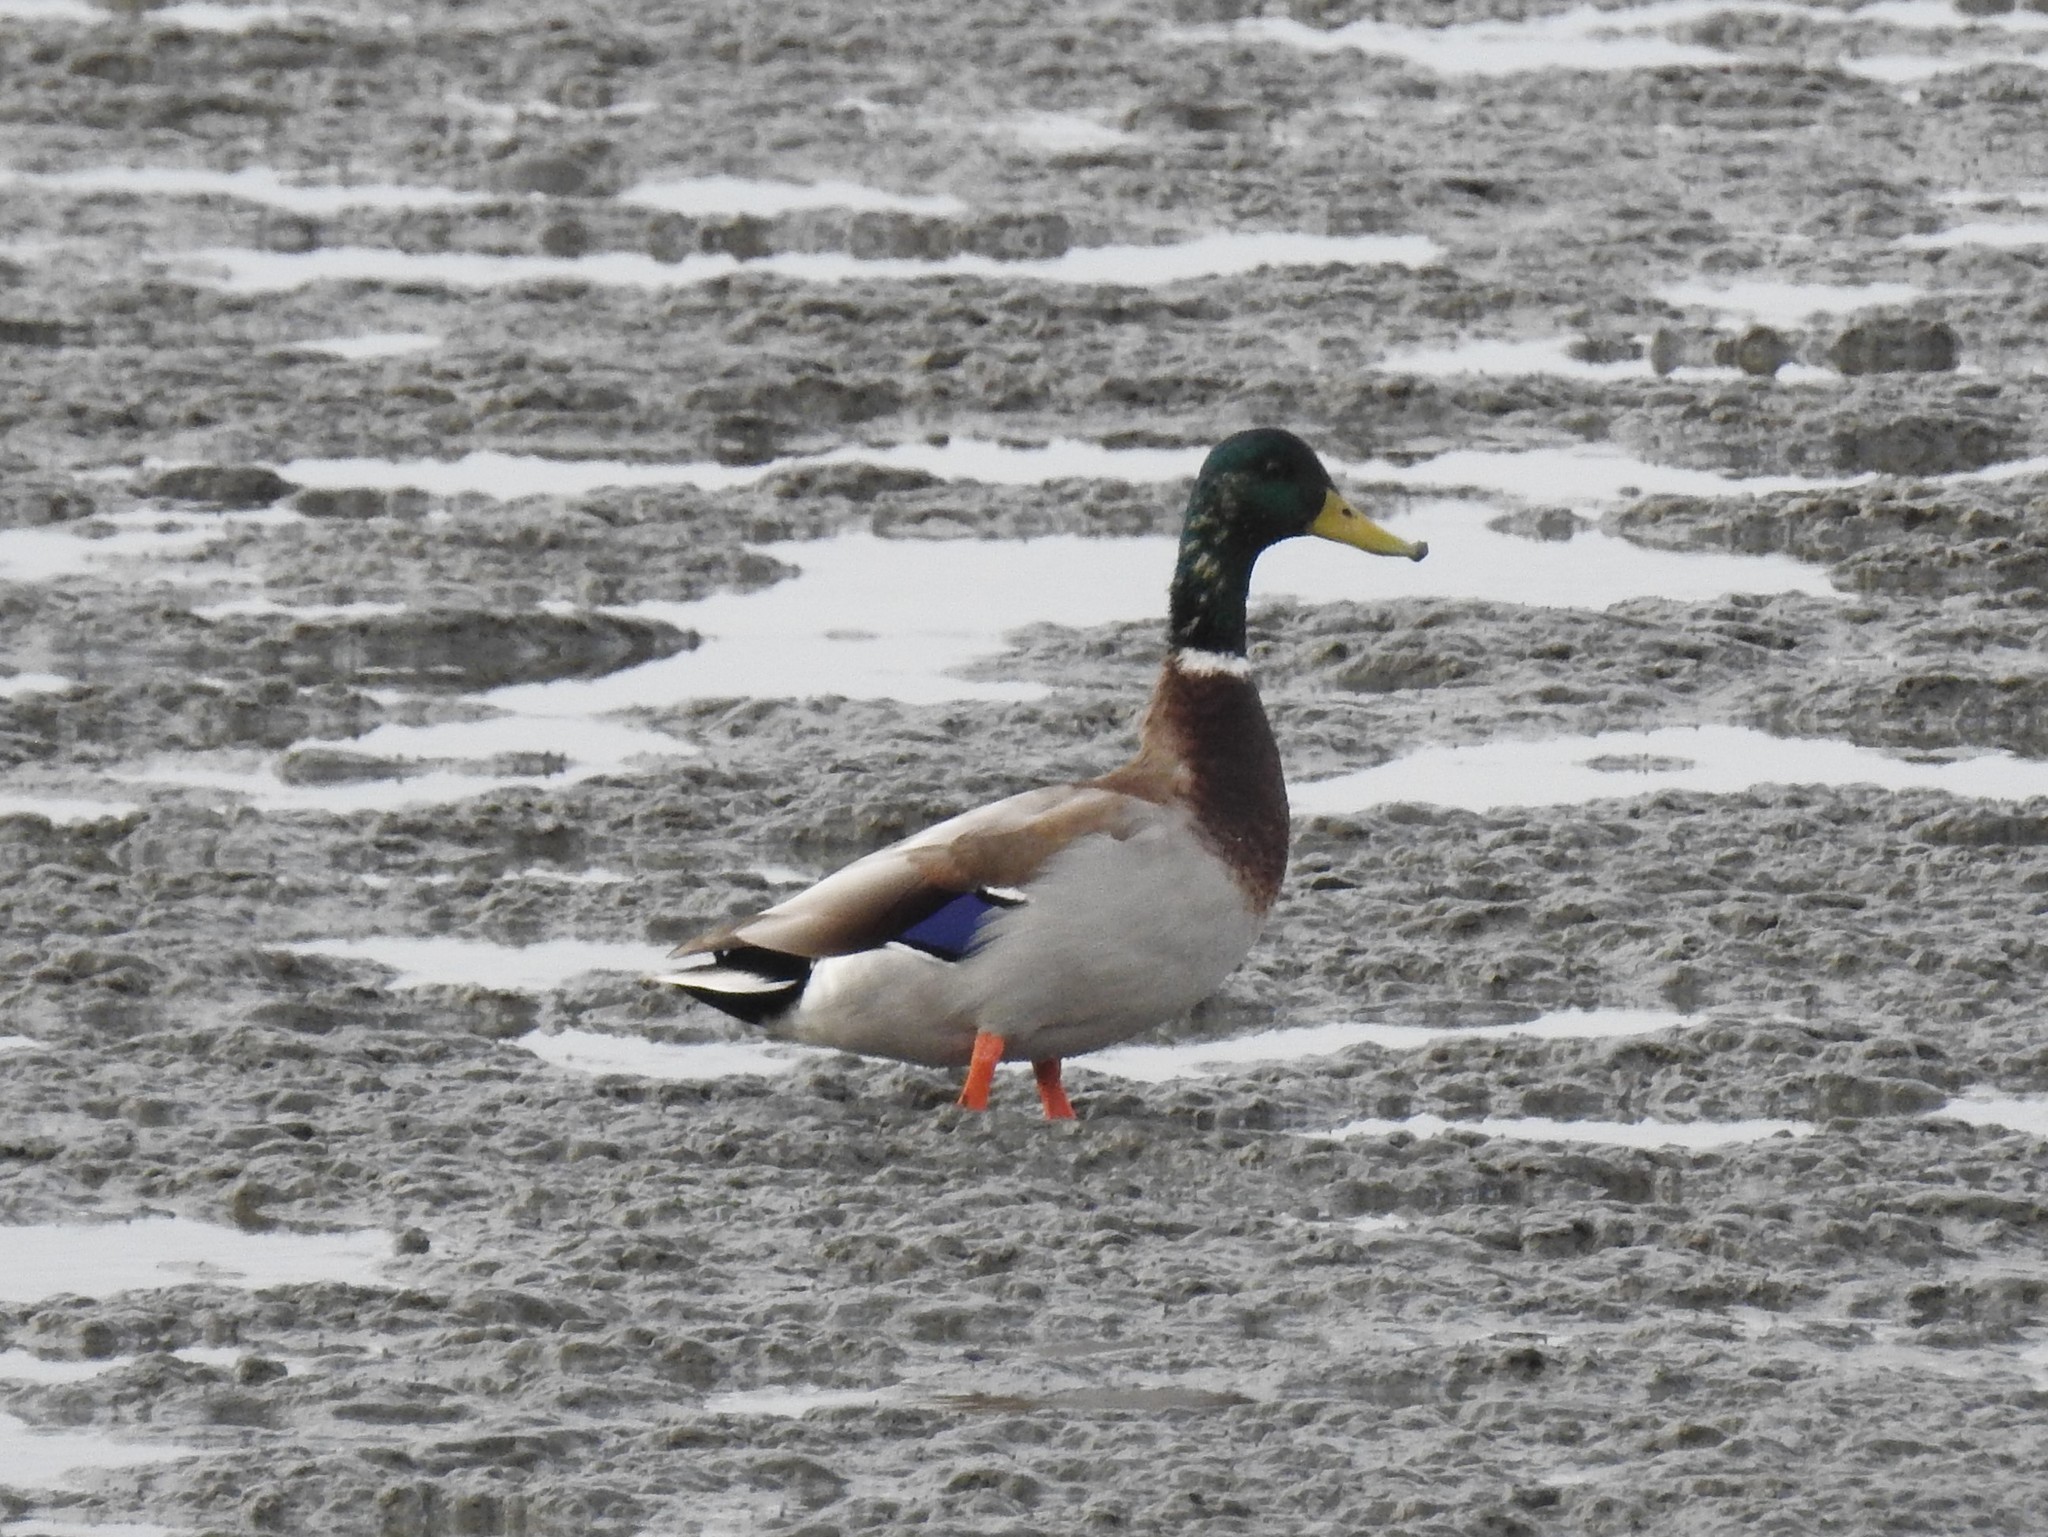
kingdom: Animalia
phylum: Chordata
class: Aves
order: Anseriformes
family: Anatidae
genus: Anas
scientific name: Anas platyrhynchos
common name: Mallard
